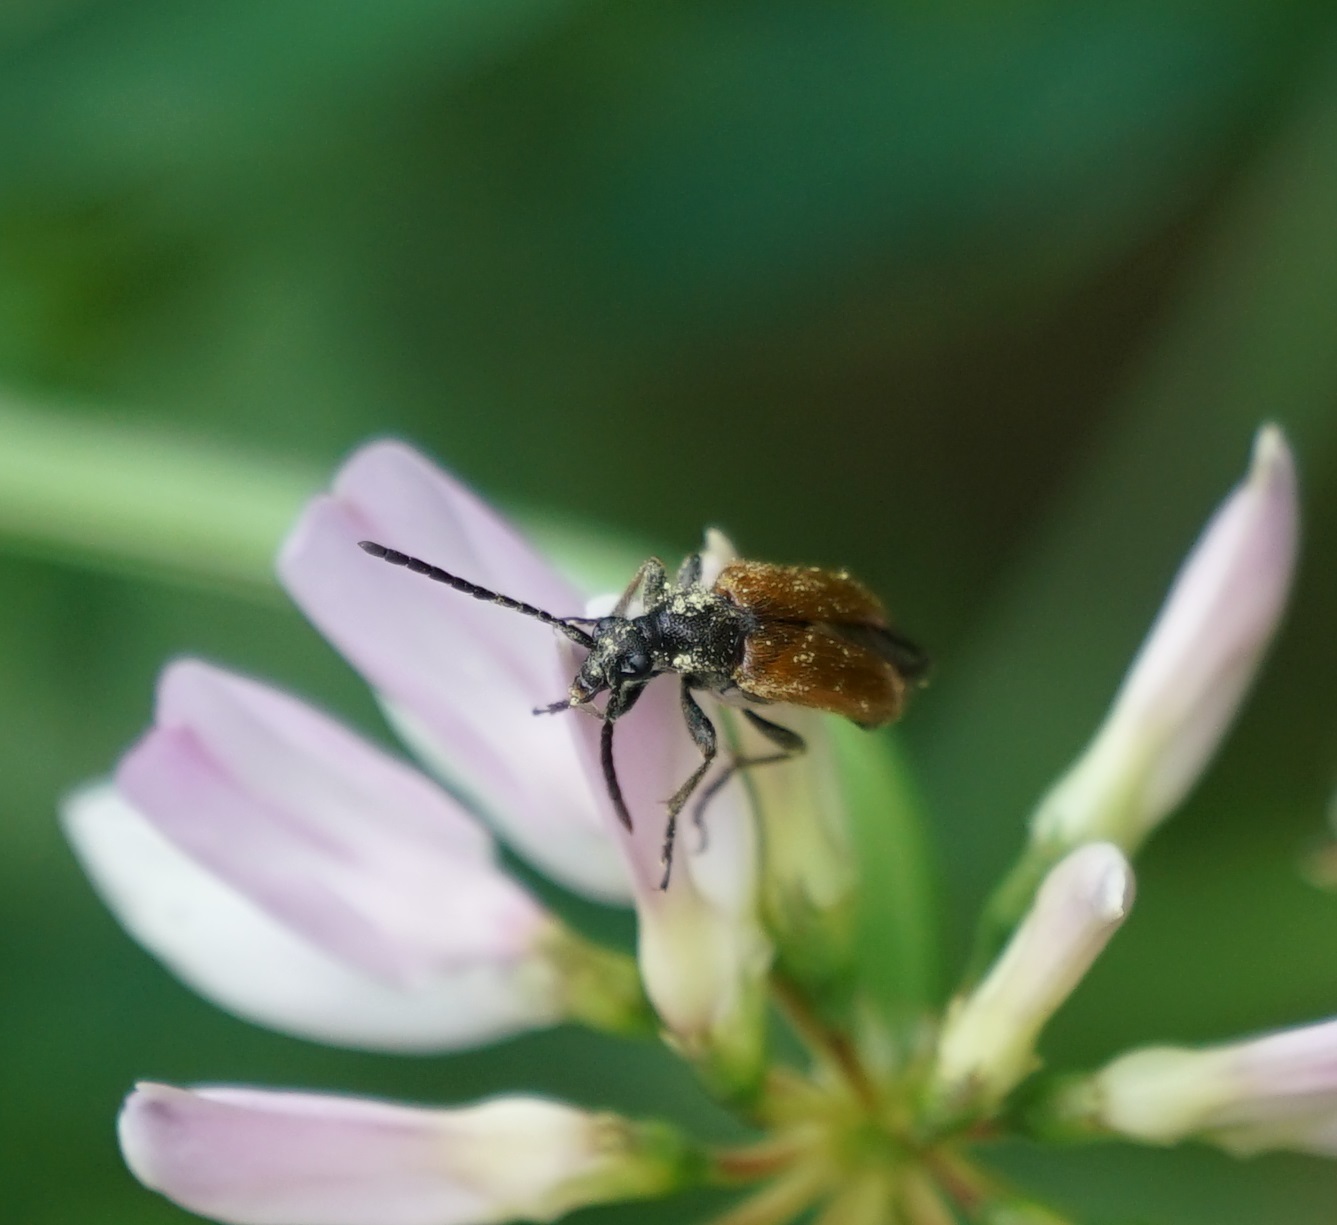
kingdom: Animalia
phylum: Arthropoda
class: Insecta
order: Coleoptera
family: Cerambycidae
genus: Pseudovadonia
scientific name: Pseudovadonia livida
